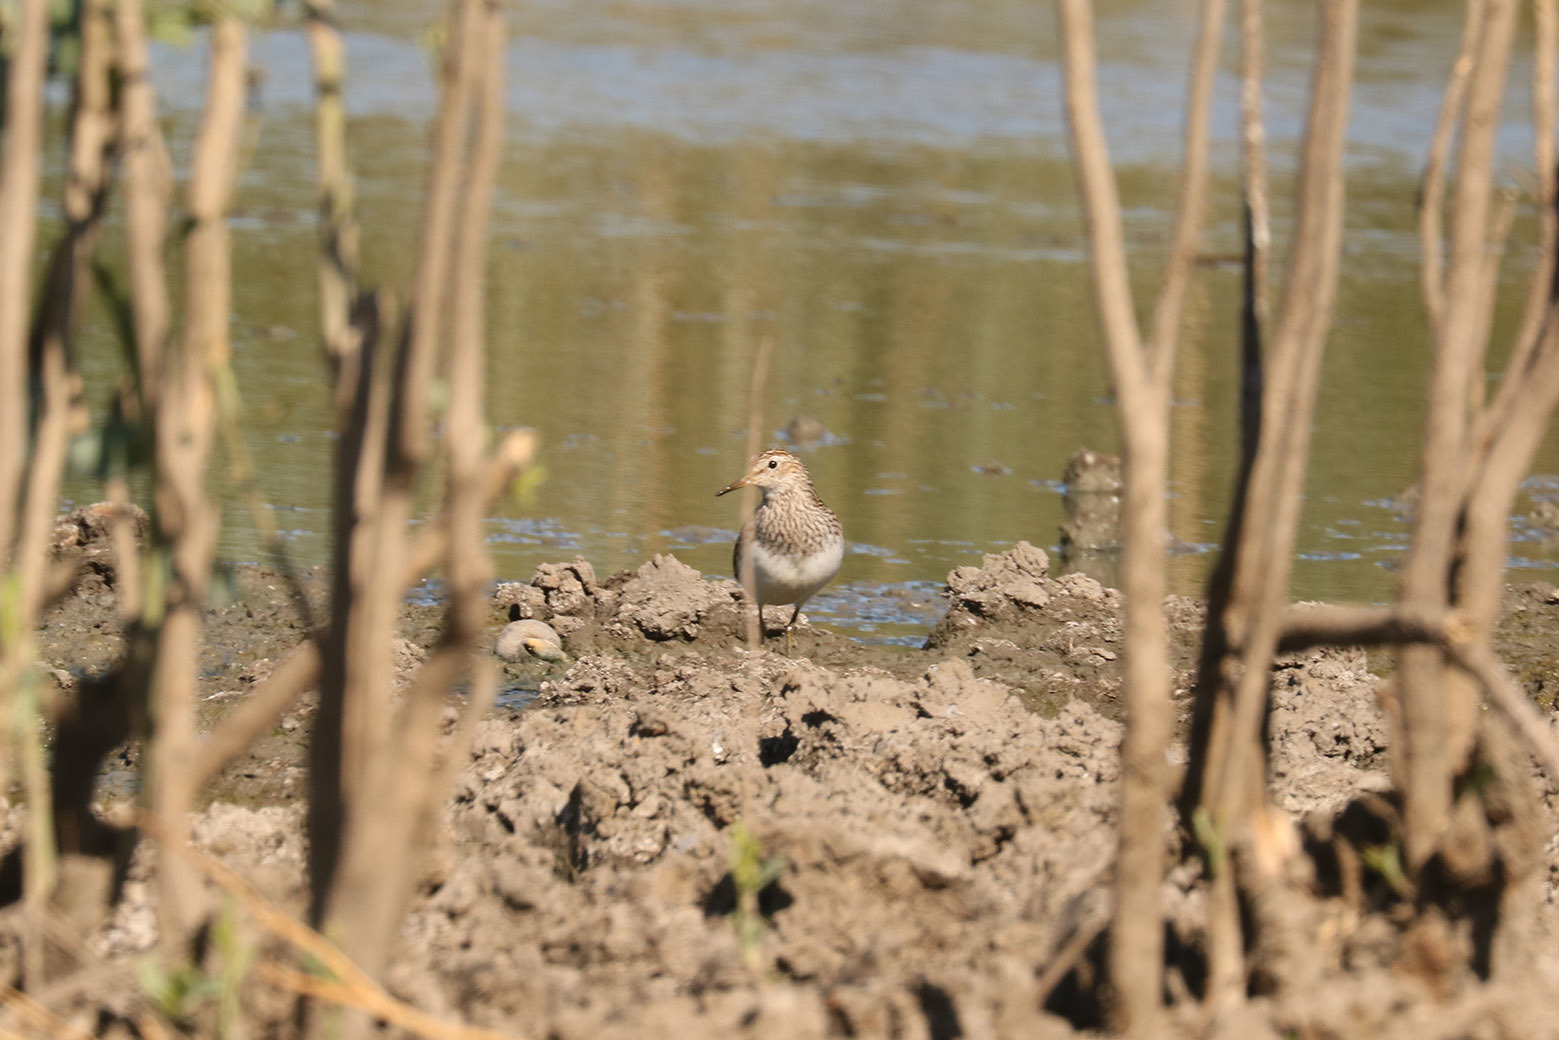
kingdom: Animalia
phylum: Chordata
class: Aves
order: Charadriiformes
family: Scolopacidae
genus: Calidris
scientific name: Calidris melanotos
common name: Pectoral sandpiper
